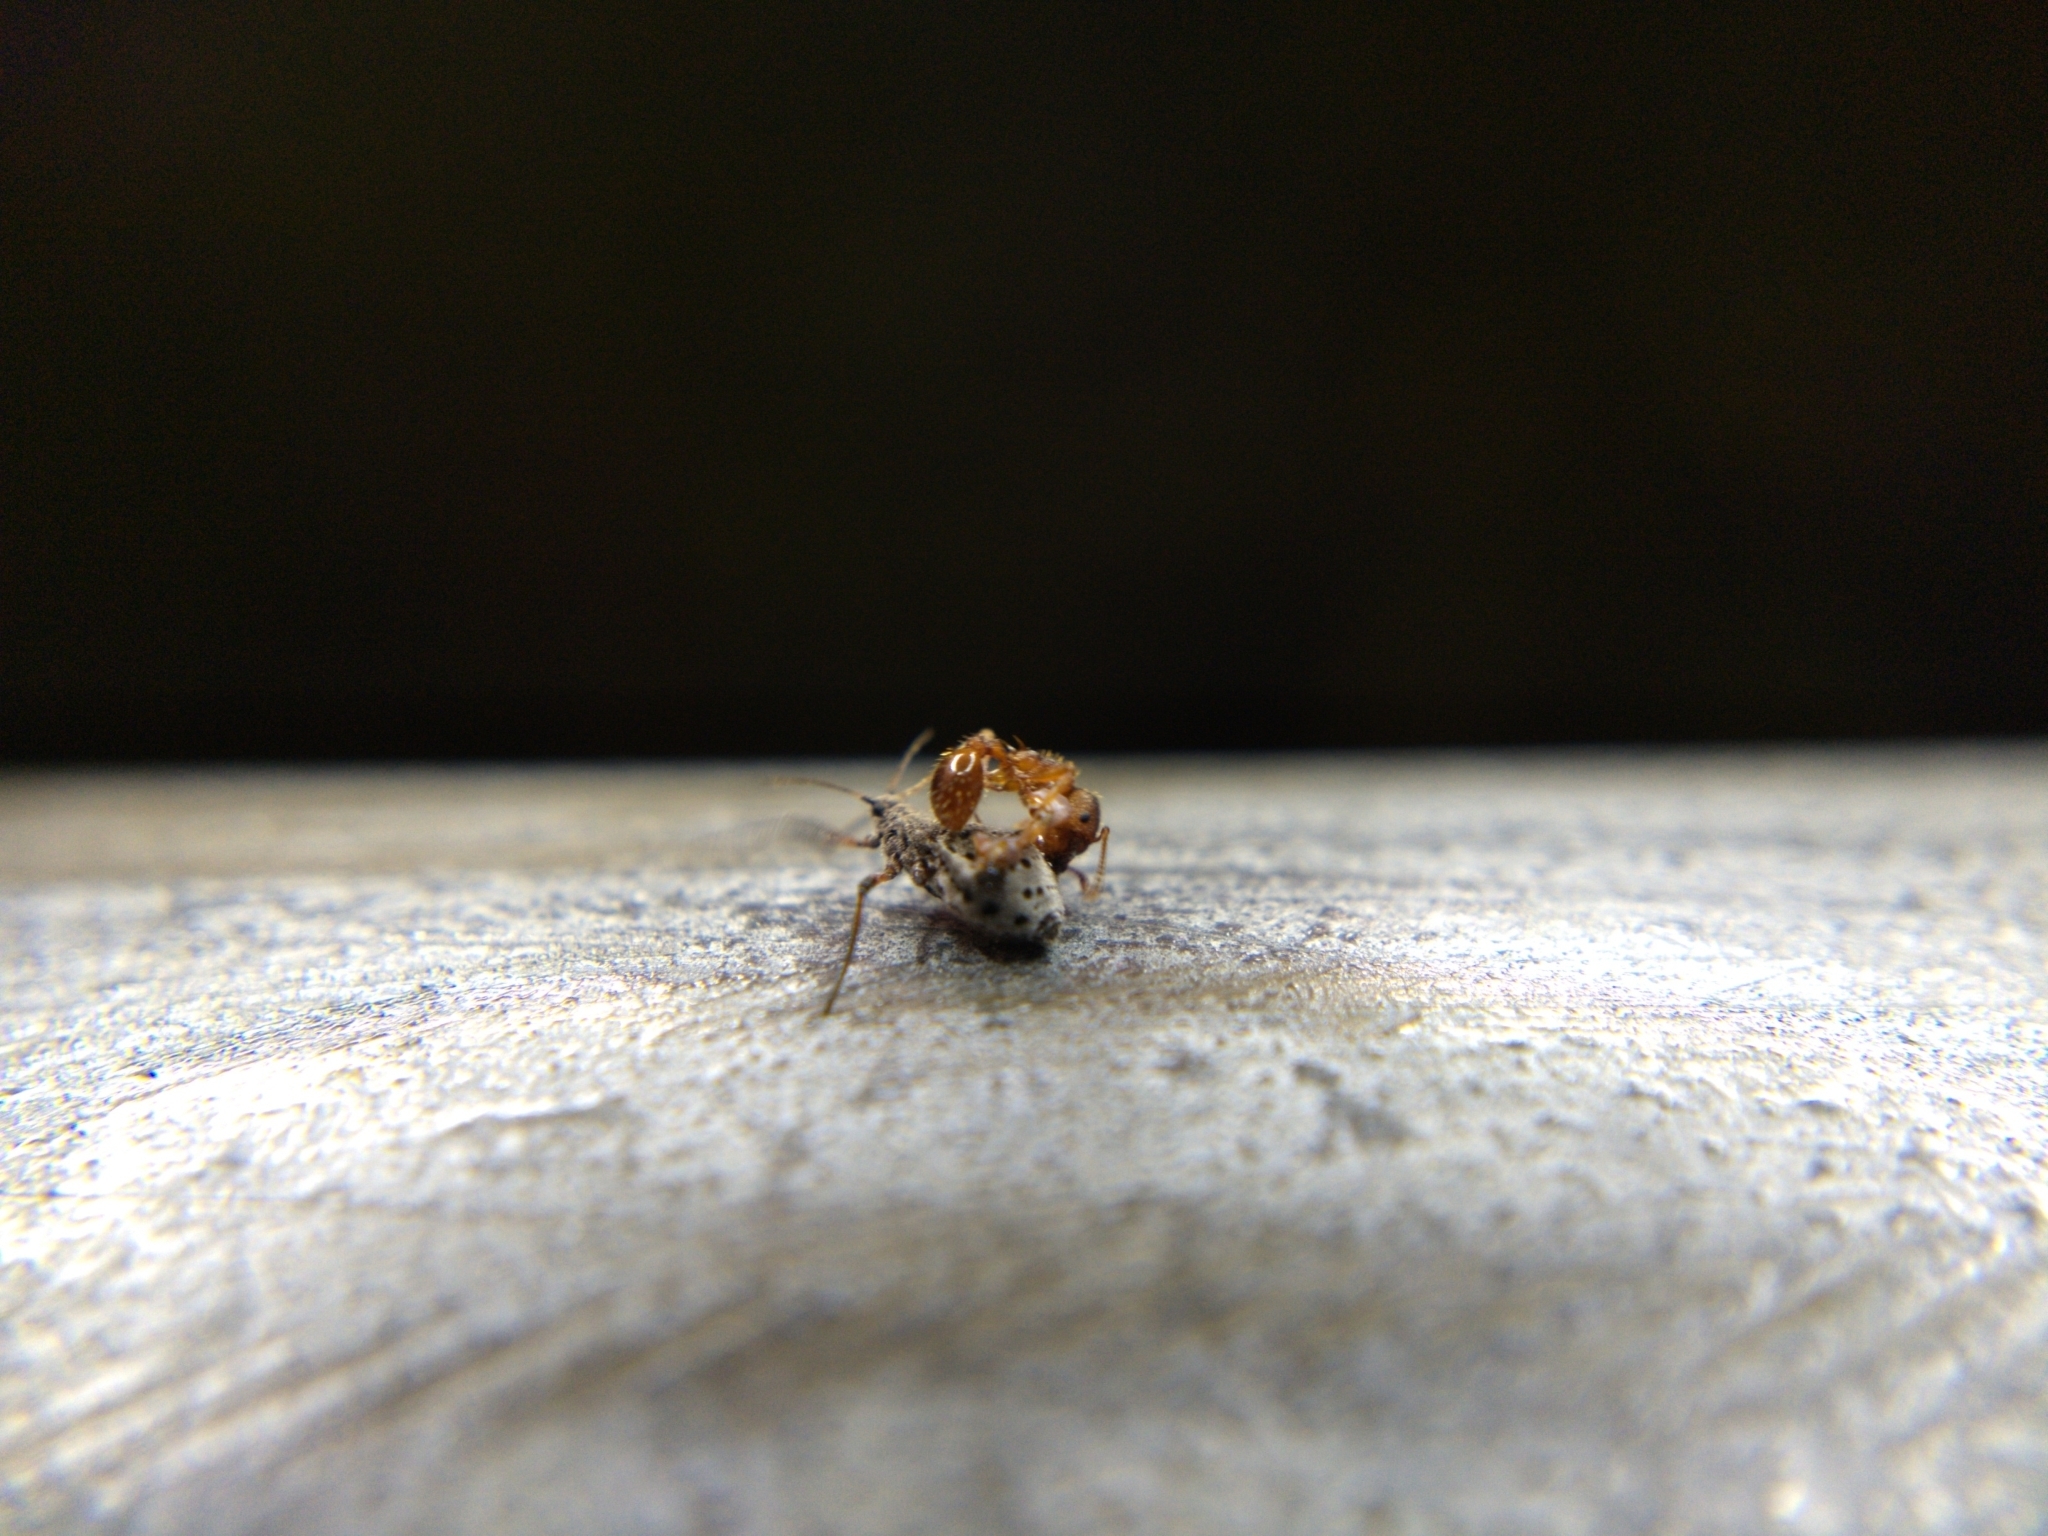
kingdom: Animalia
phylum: Arthropoda
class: Insecta
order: Hemiptera
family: Aphididae
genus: Tuberolachnus
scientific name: Tuberolachnus salignus
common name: Giant willow aphid
